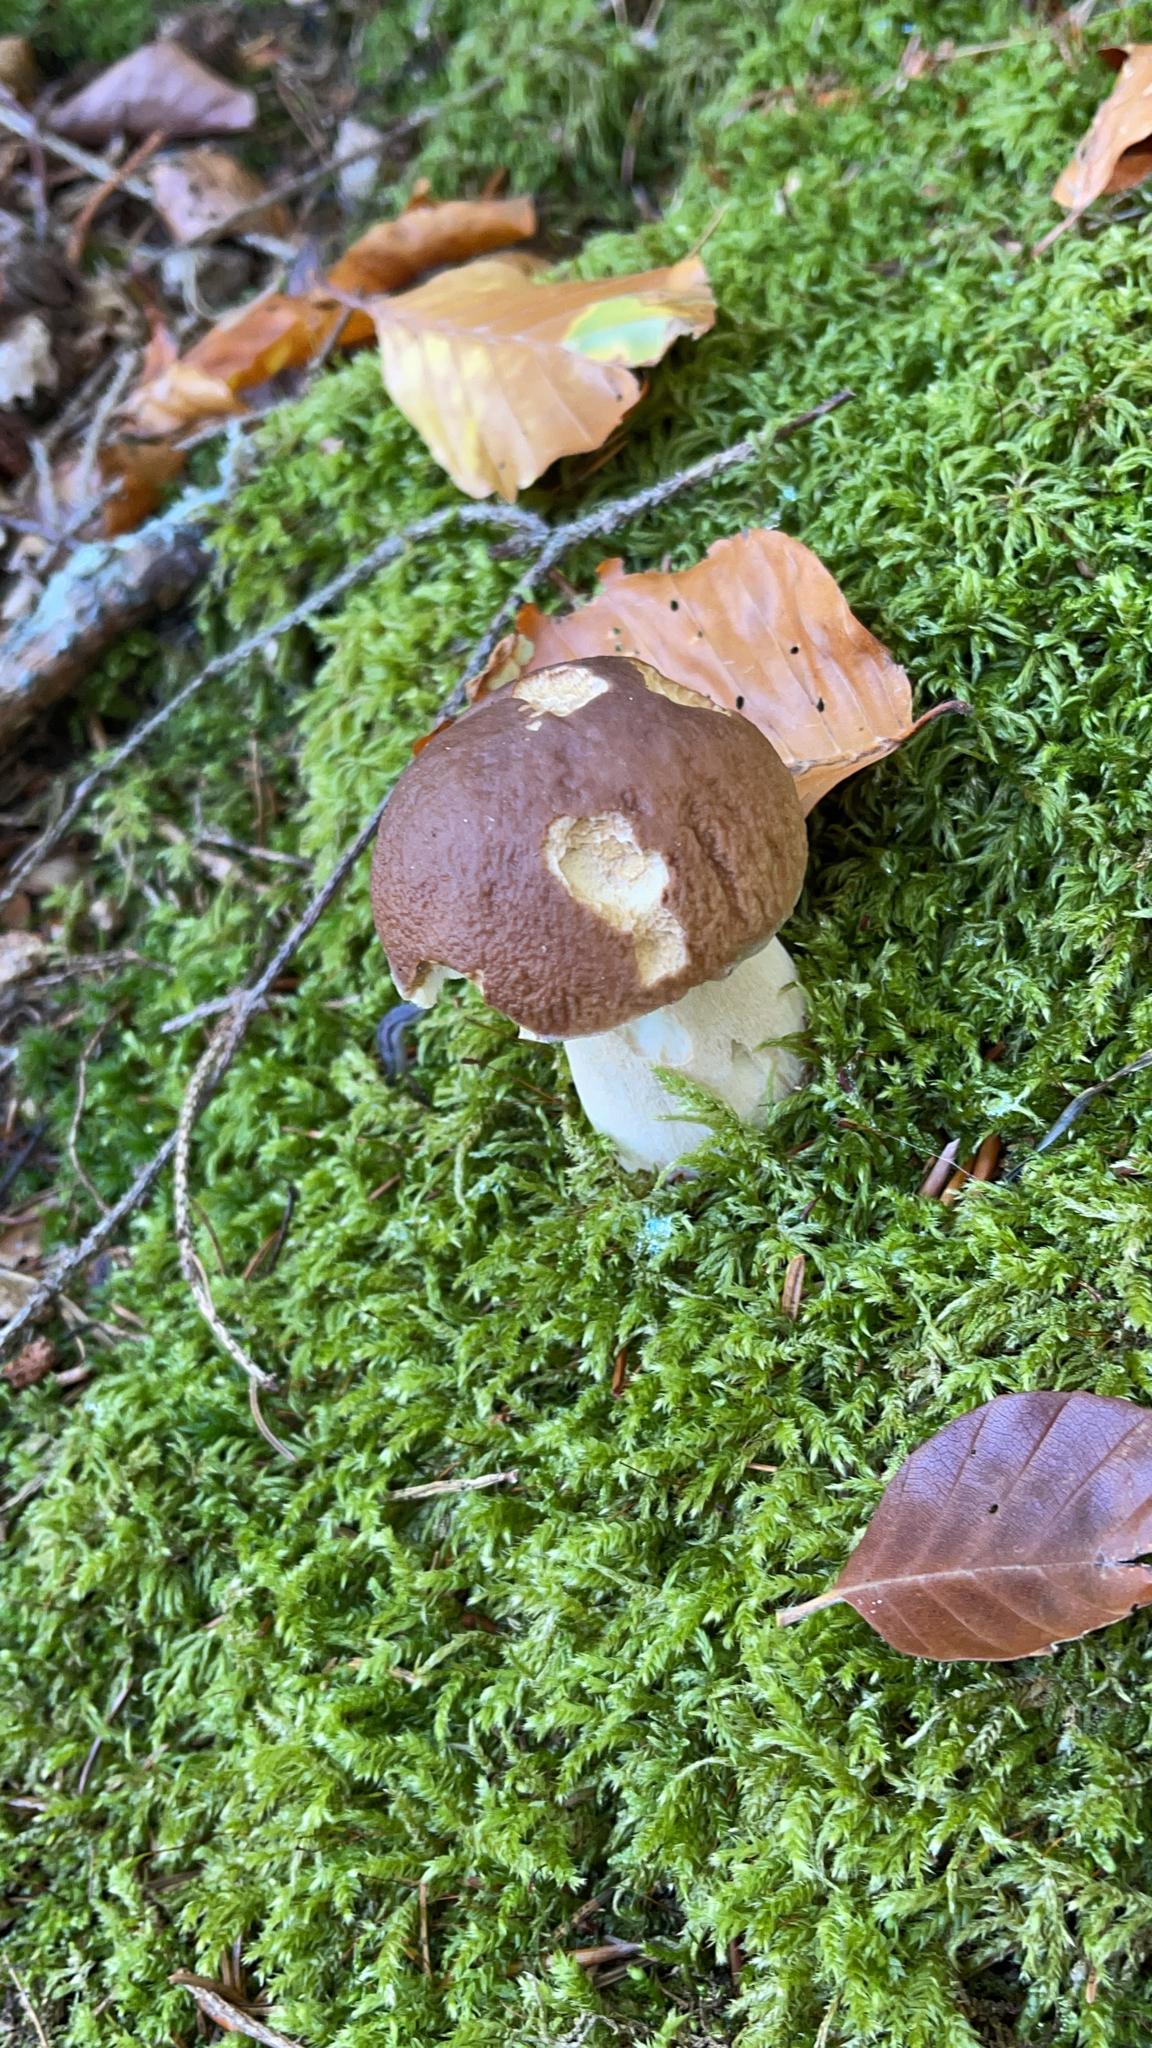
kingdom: Fungi
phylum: Basidiomycota
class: Agaricomycetes
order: Boletales
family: Boletaceae
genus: Boletus
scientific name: Boletus edulis
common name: Cep
